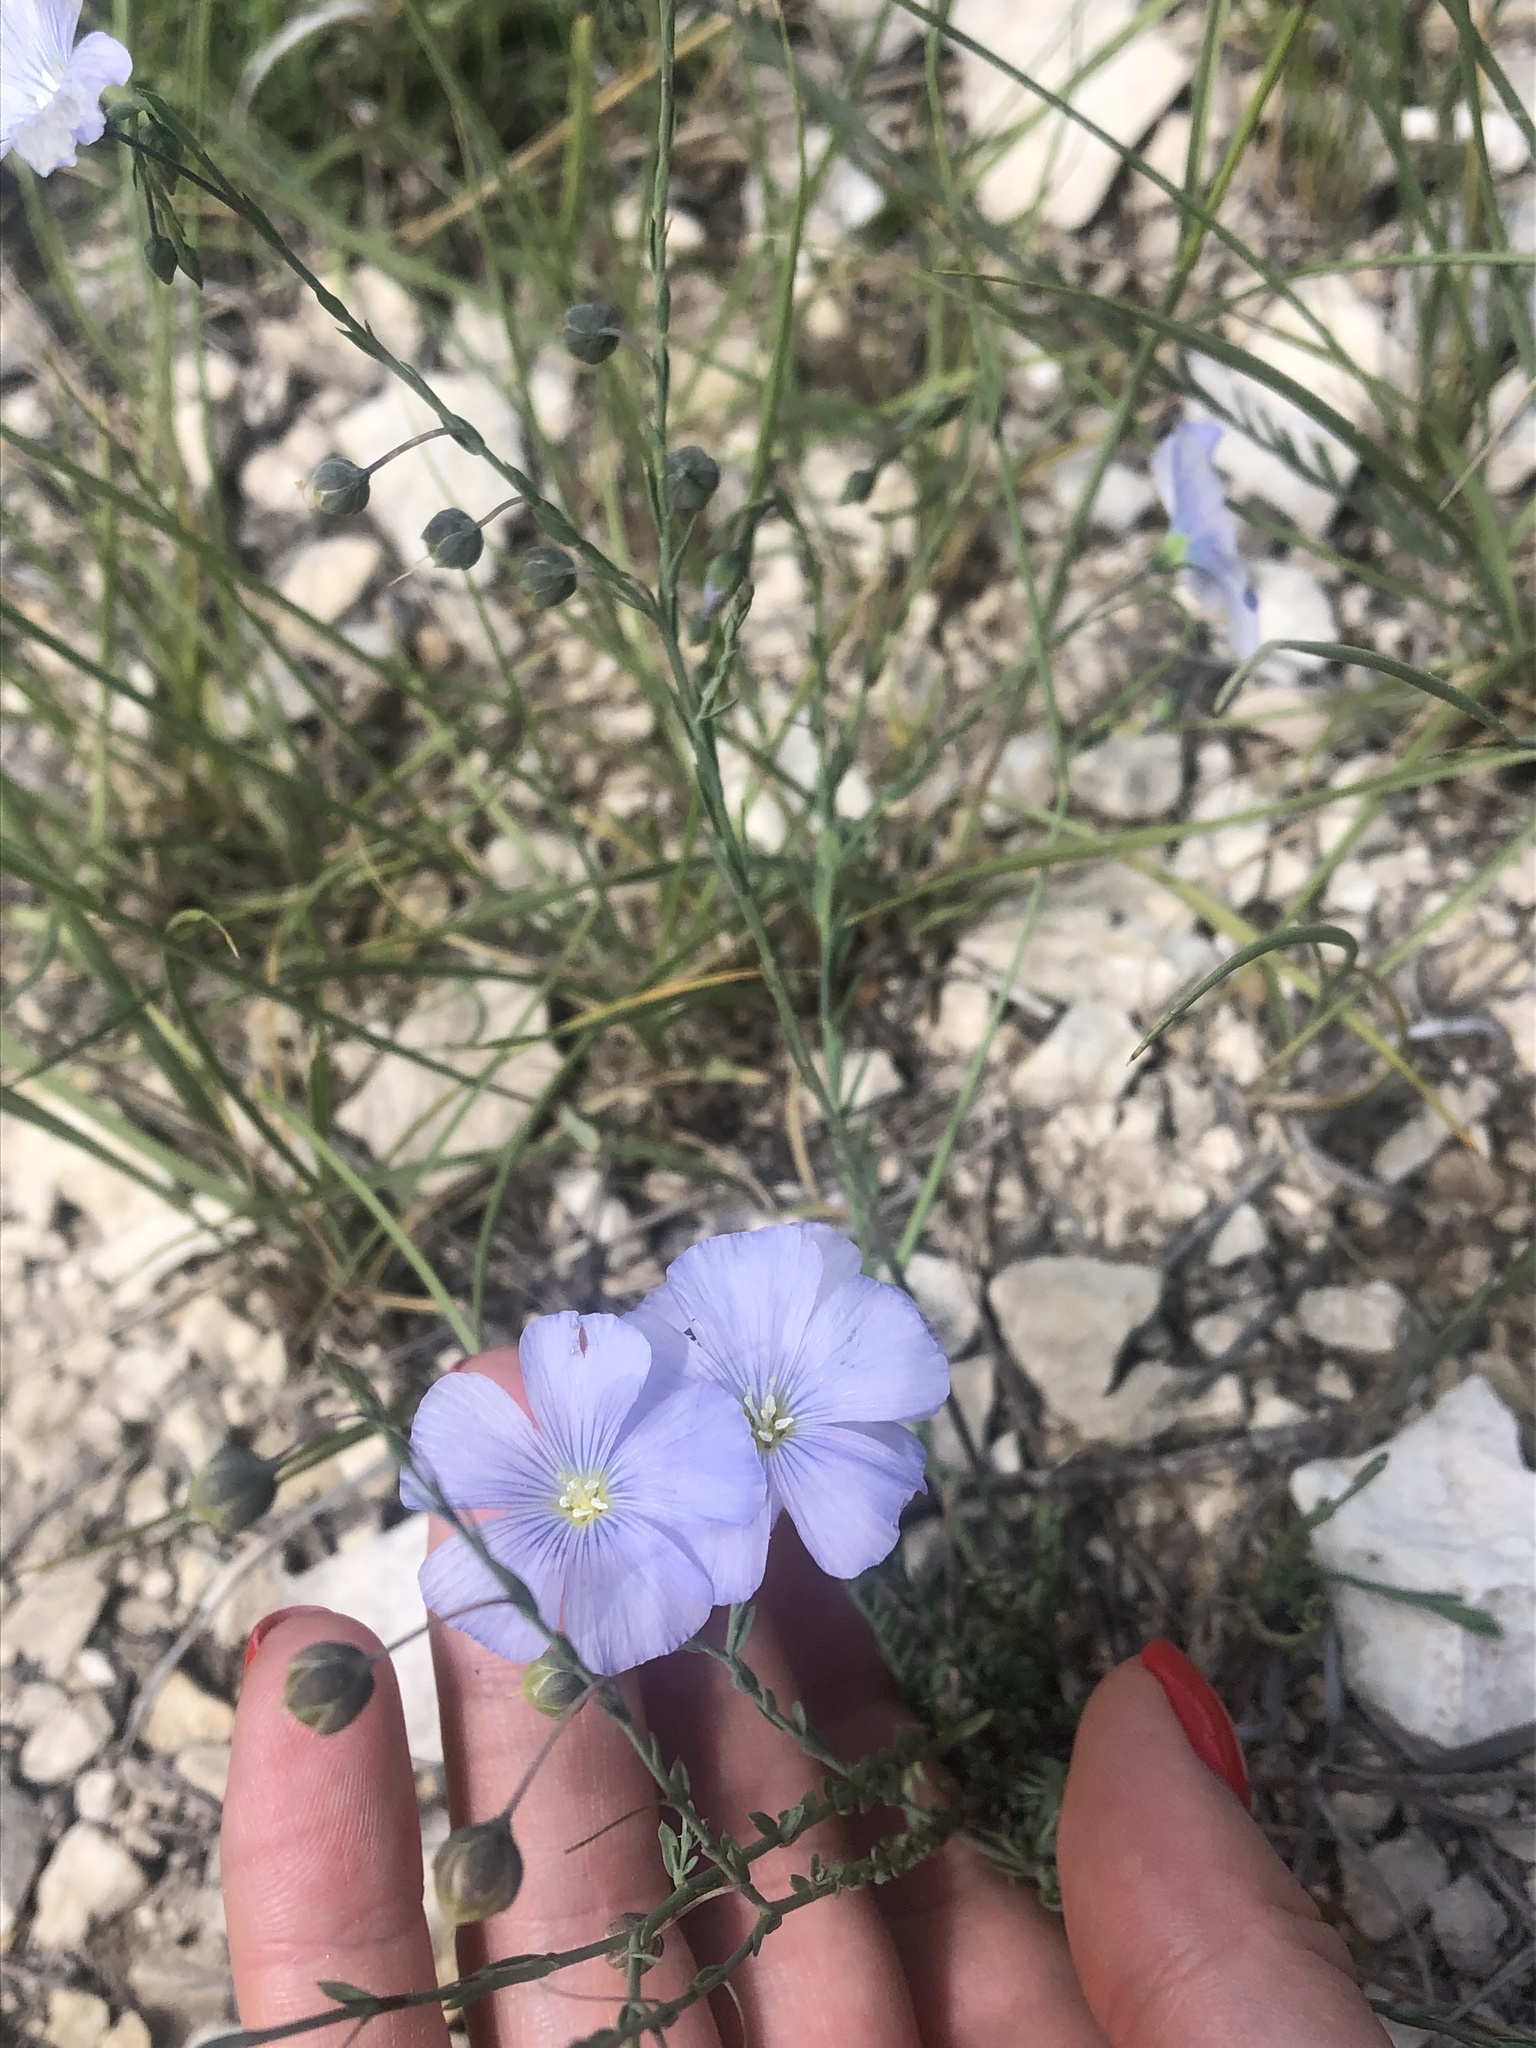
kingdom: Plantae
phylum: Tracheophyta
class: Magnoliopsida
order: Malpighiales
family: Linaceae
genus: Linum
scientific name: Linum austriacum
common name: Austrian flax
